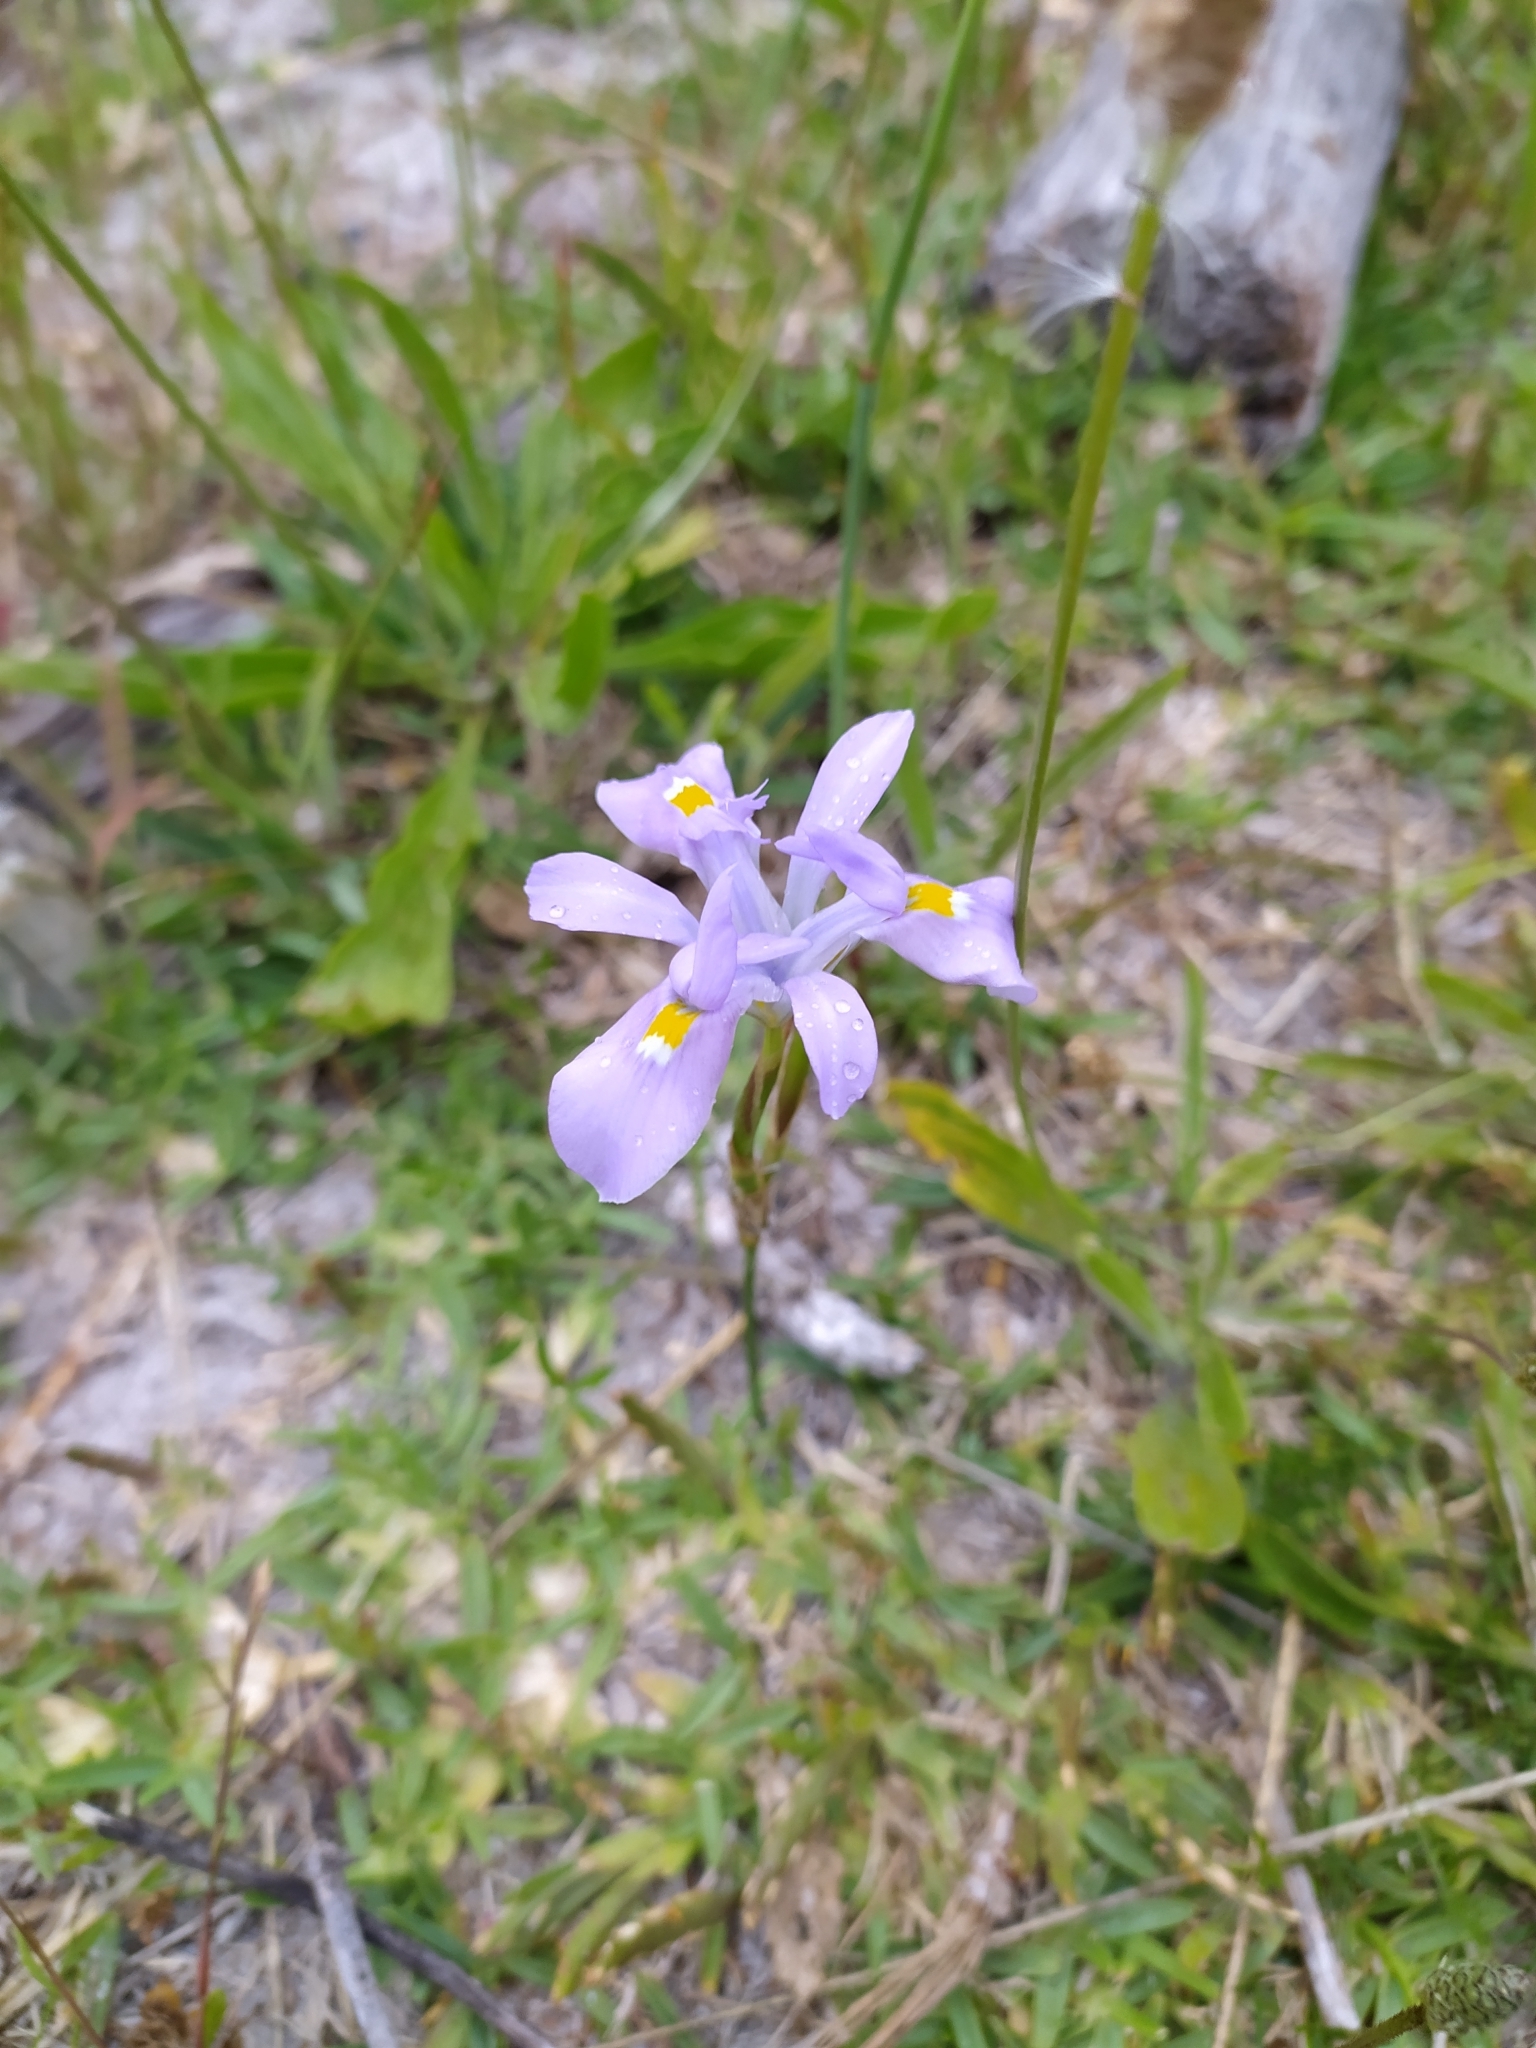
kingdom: Plantae
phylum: Tracheophyta
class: Liliopsida
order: Asparagales
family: Iridaceae
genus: Moraea
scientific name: Moraea fugax
